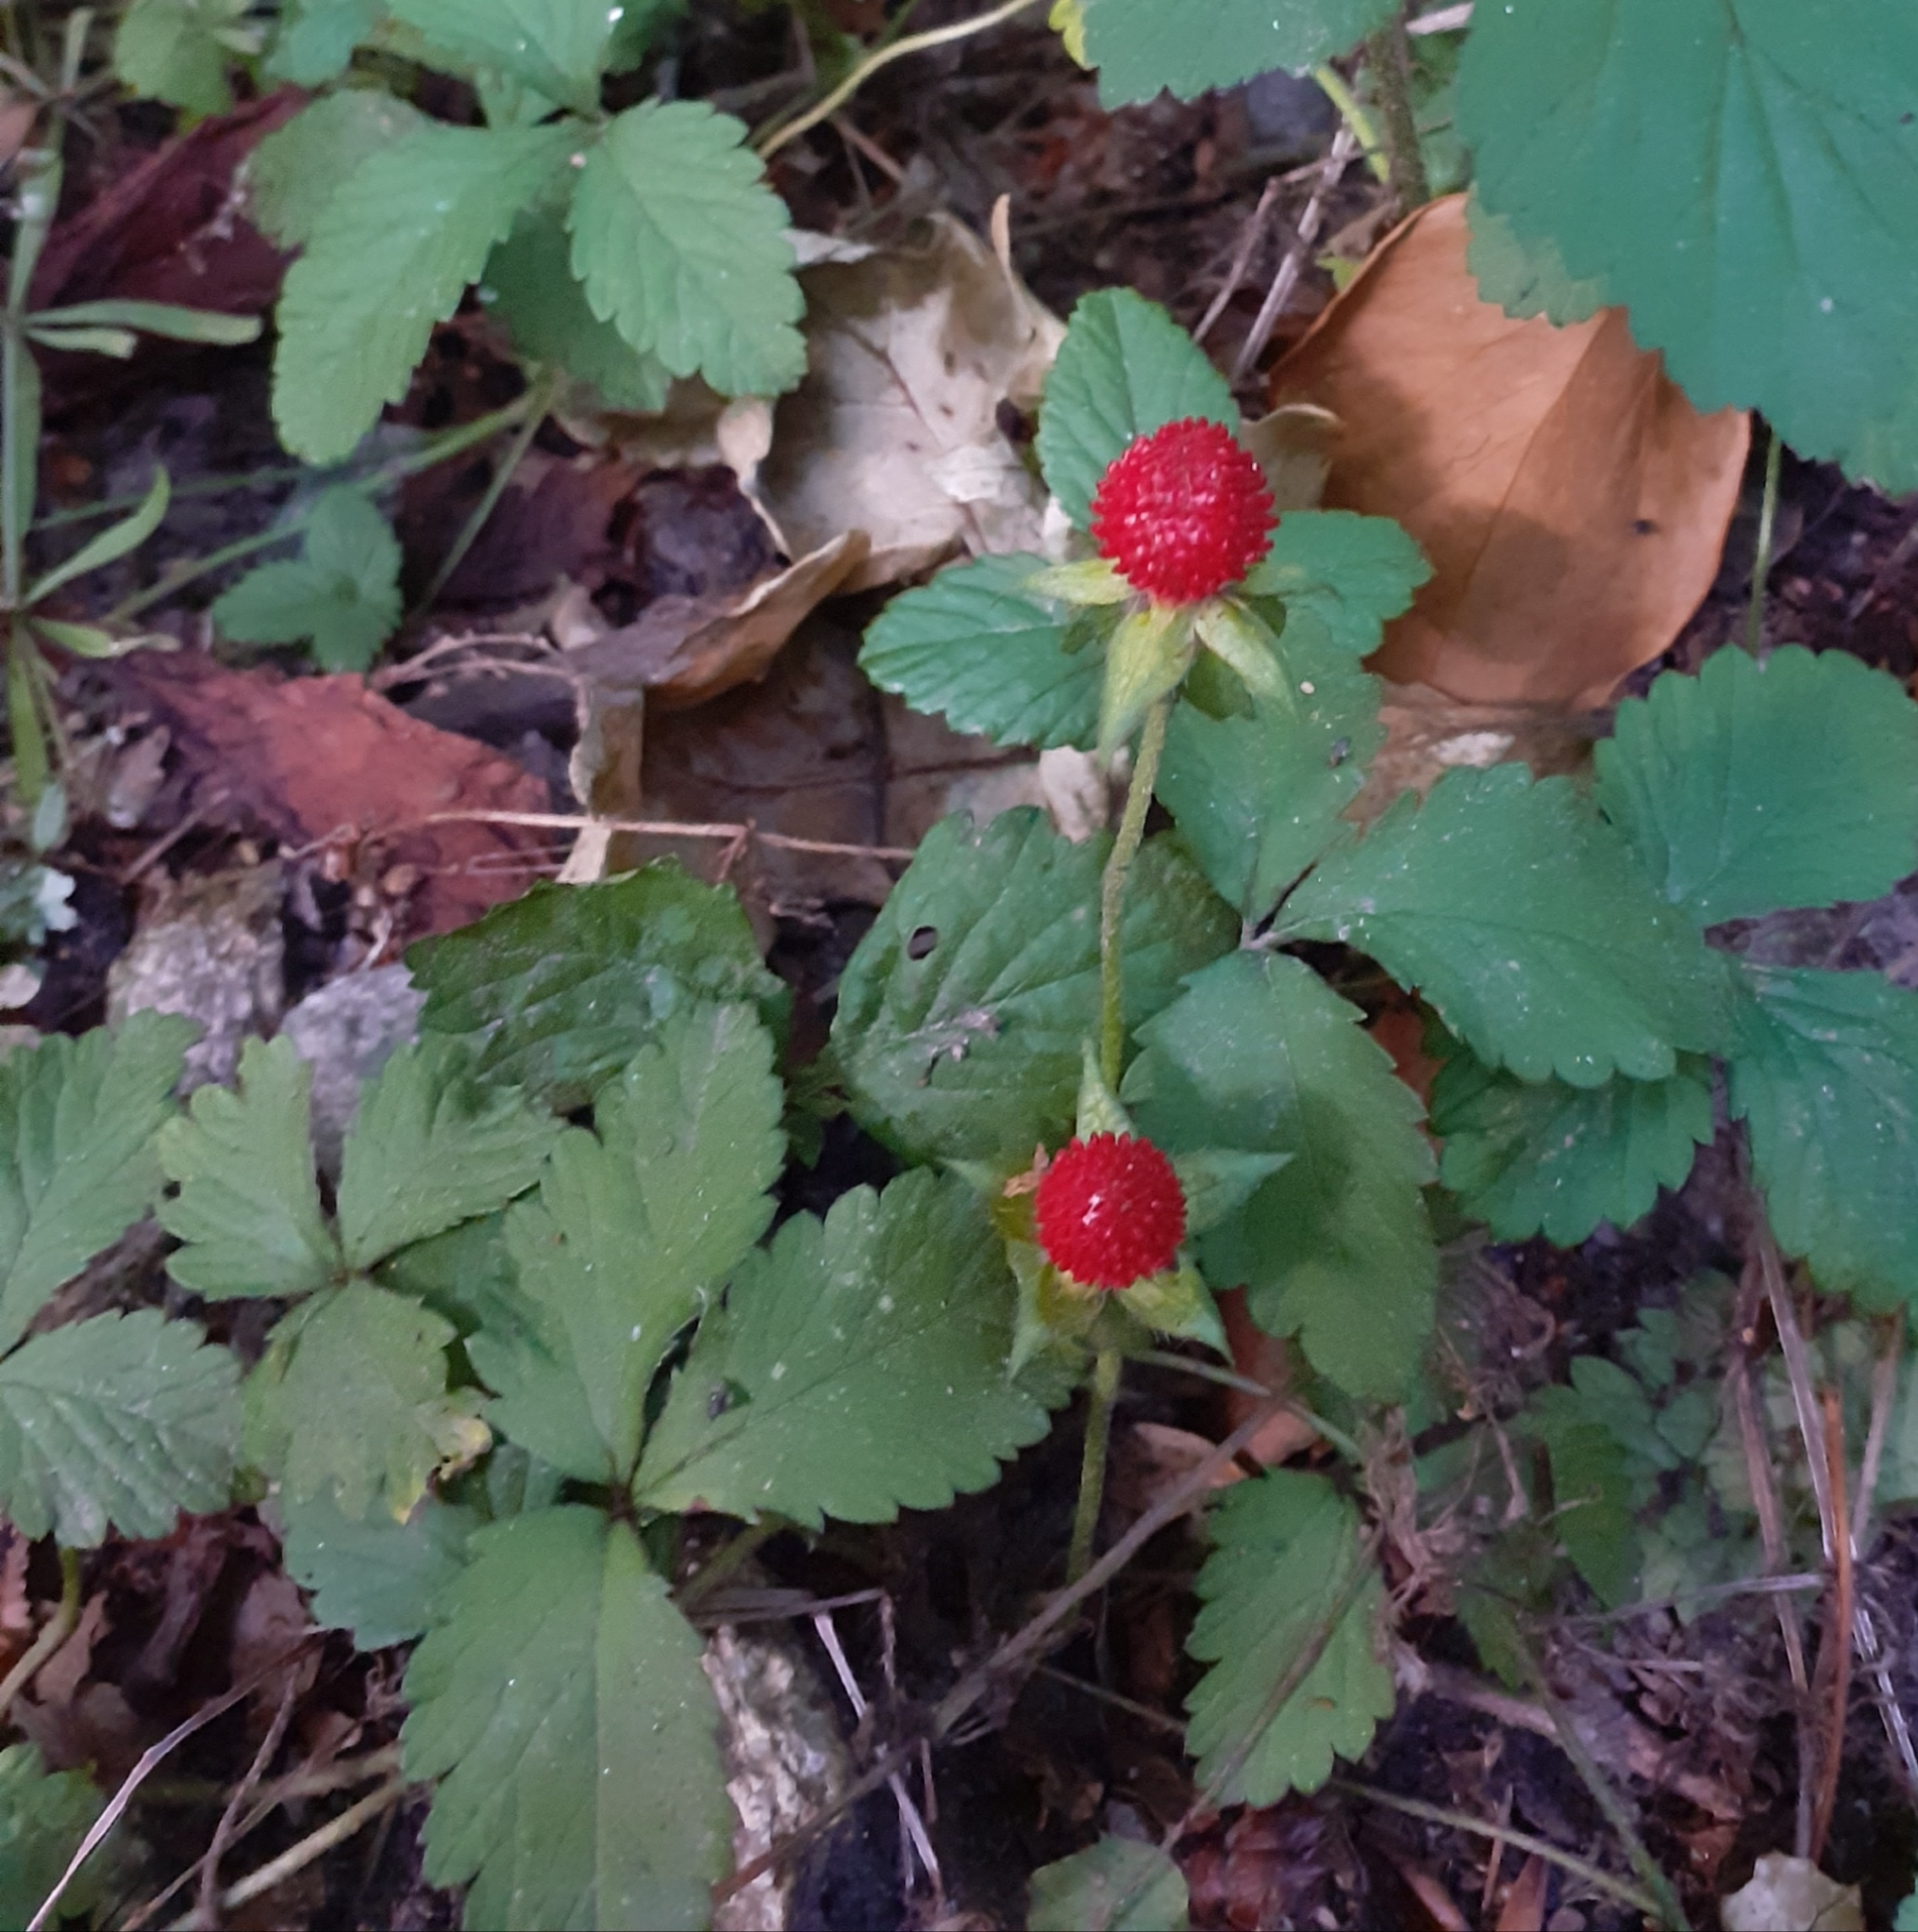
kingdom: Plantae
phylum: Tracheophyta
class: Magnoliopsida
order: Rosales
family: Rosaceae
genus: Potentilla
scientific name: Potentilla indica
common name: Yellow-flowered strawberry
